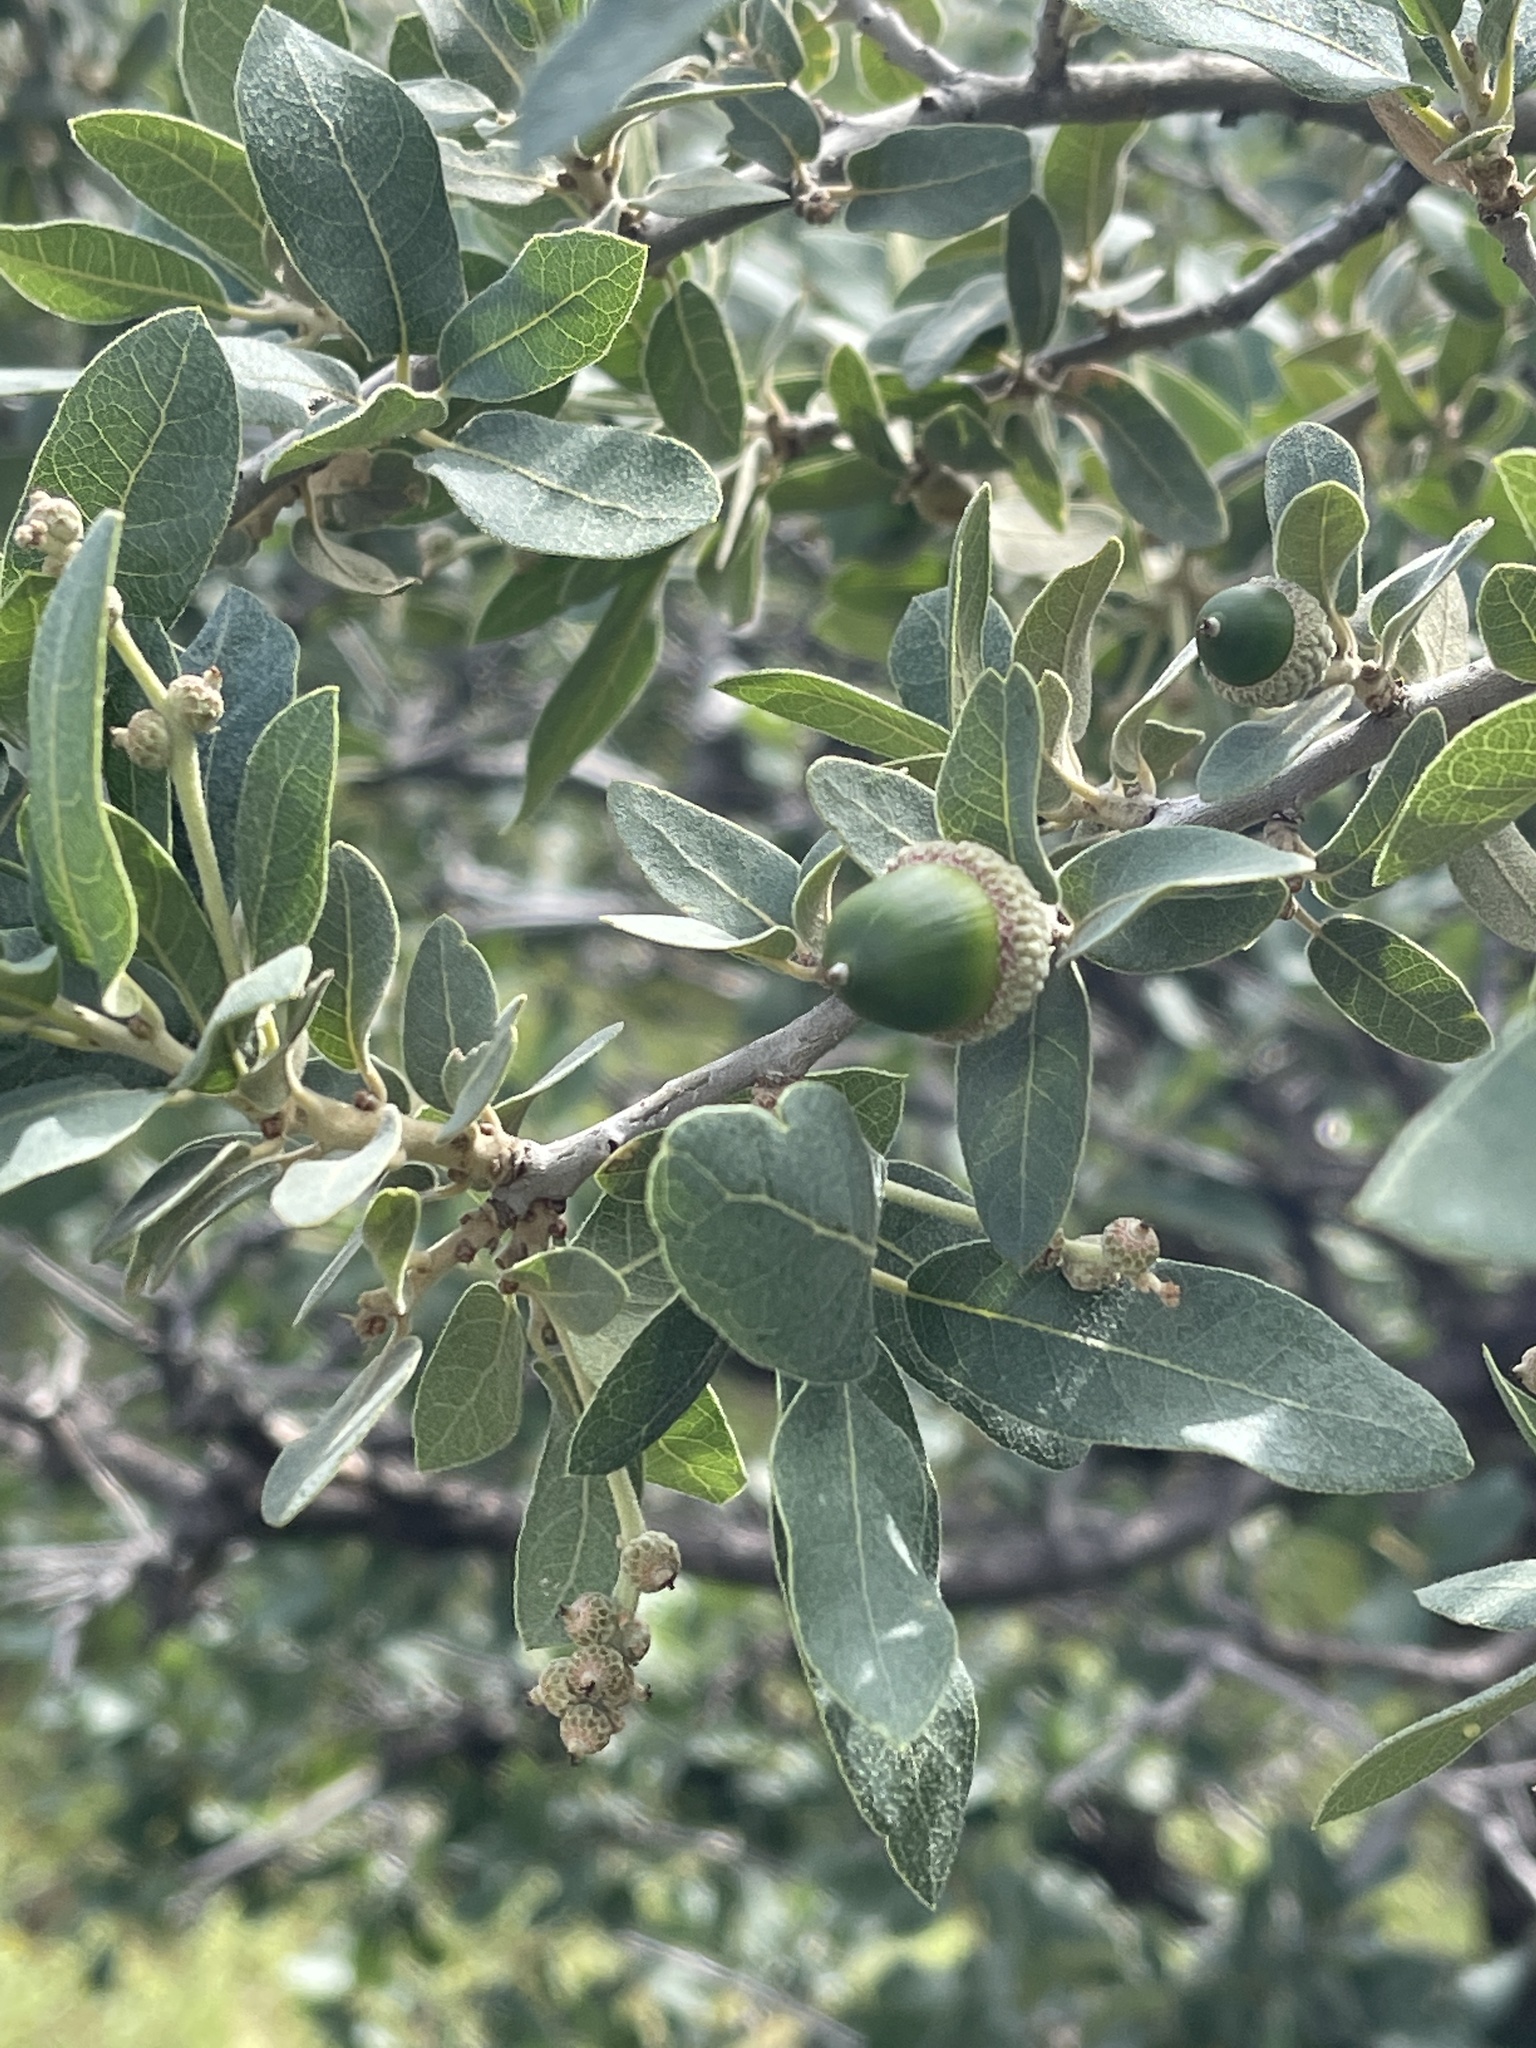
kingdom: Plantae
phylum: Tracheophyta
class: Magnoliopsida
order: Fagales
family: Fagaceae
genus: Quercus
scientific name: Quercus grisea
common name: Gray oak
